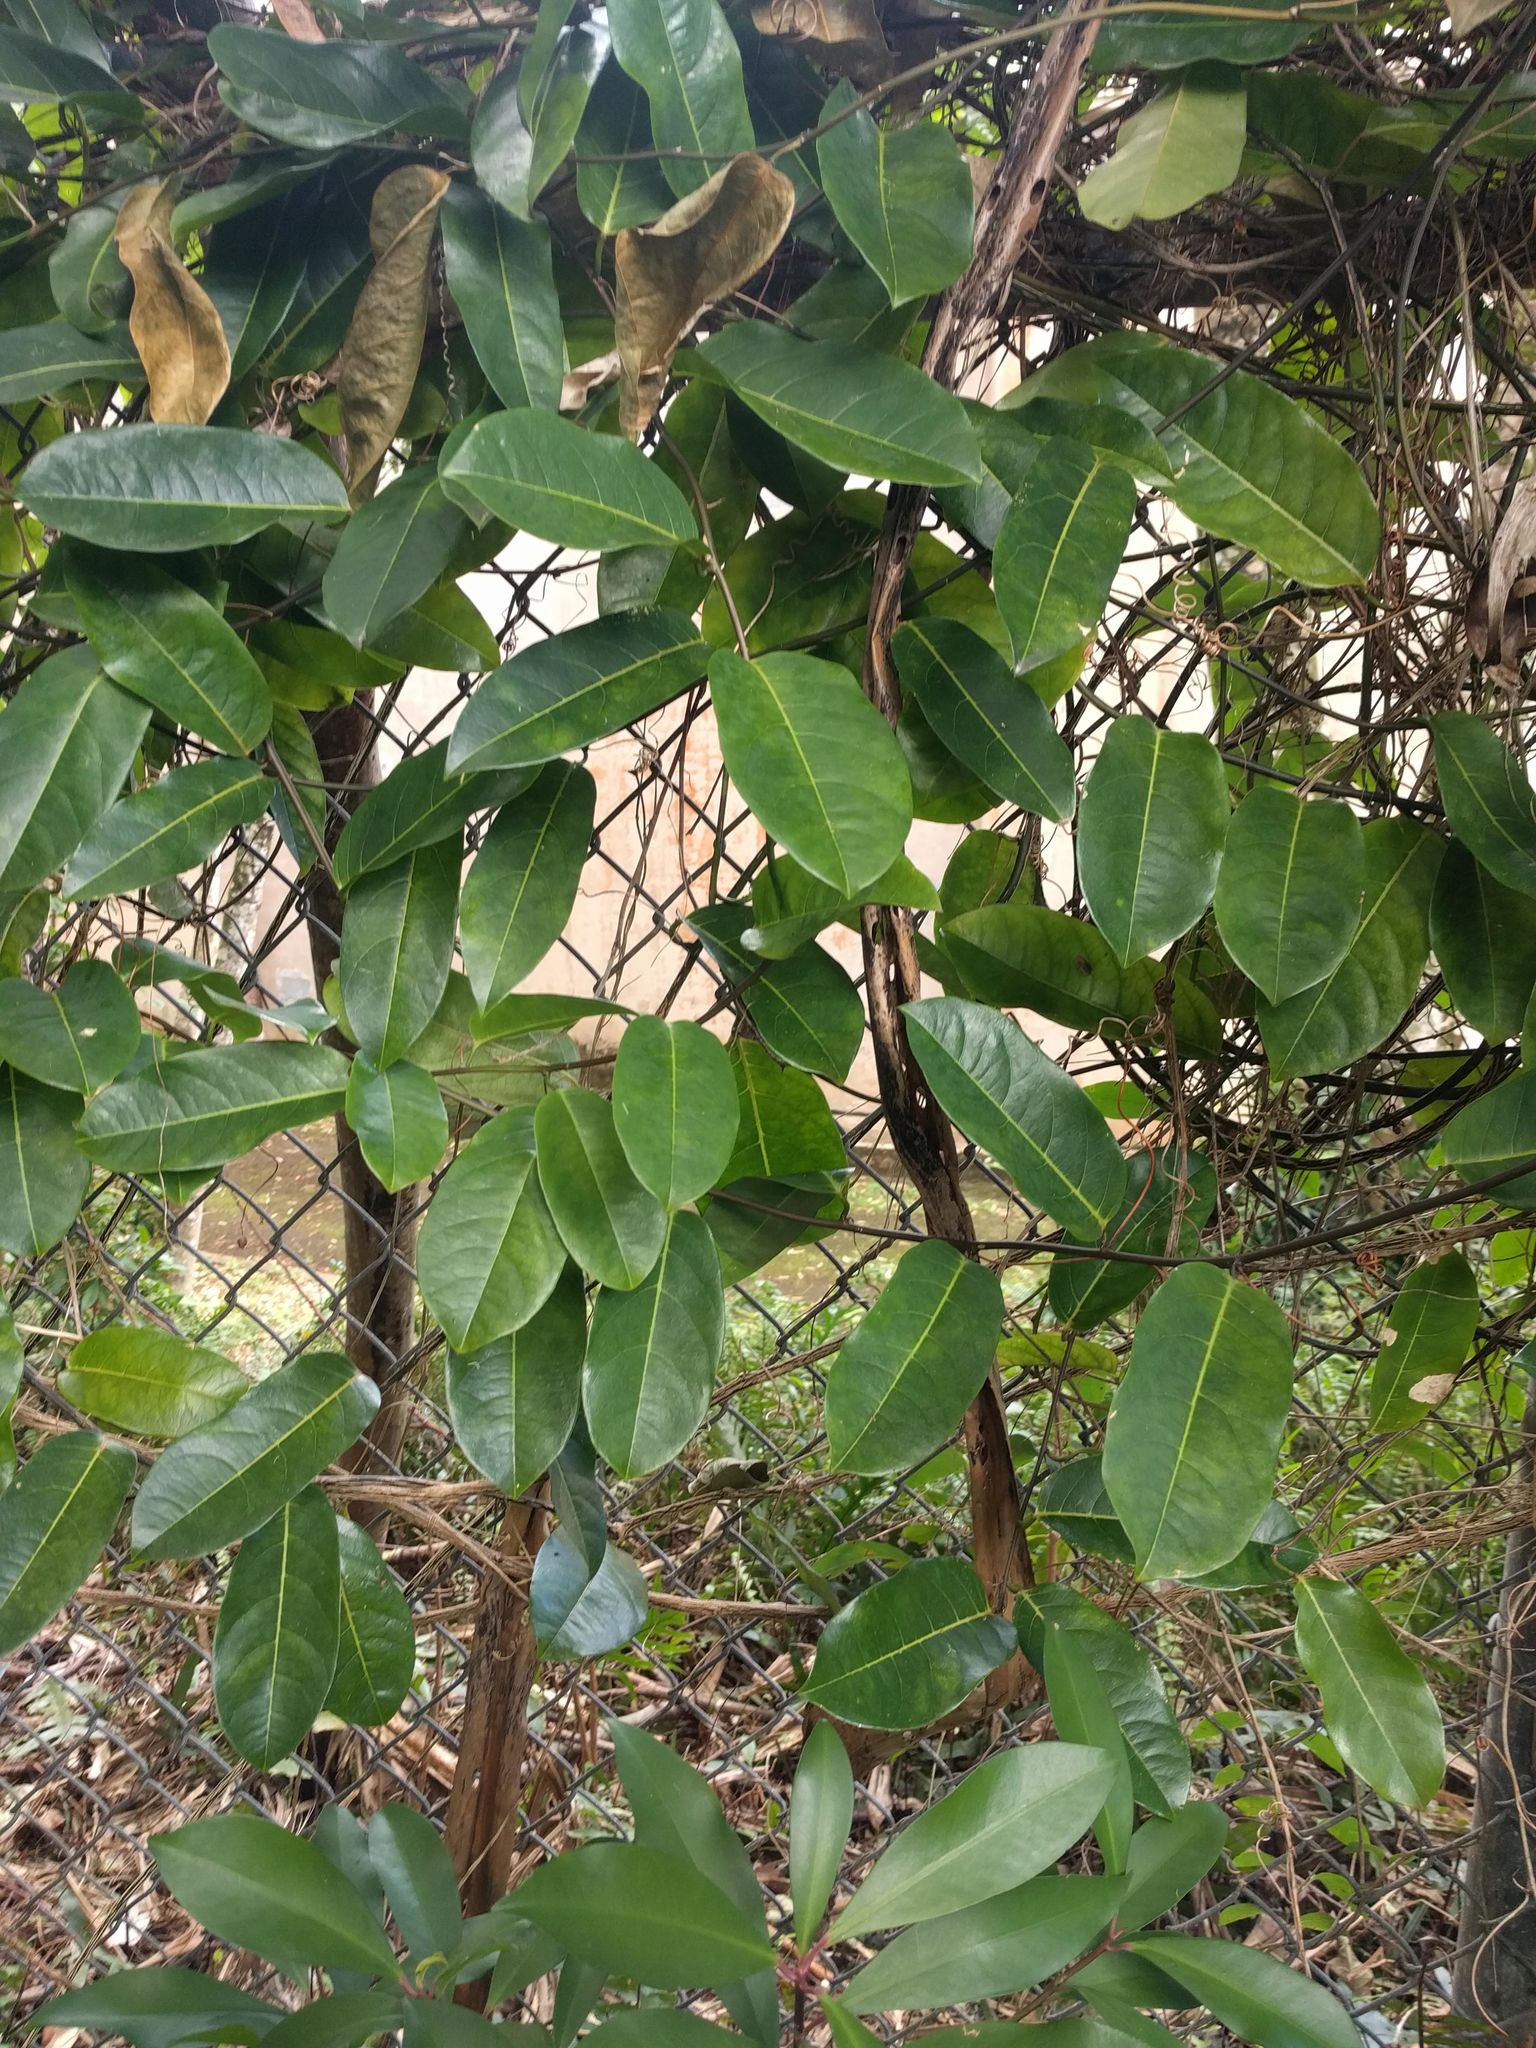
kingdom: Plantae
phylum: Tracheophyta
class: Magnoliopsida
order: Malpighiales
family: Passifloraceae
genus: Passiflora
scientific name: Passiflora laurifolia
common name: Bell apple
